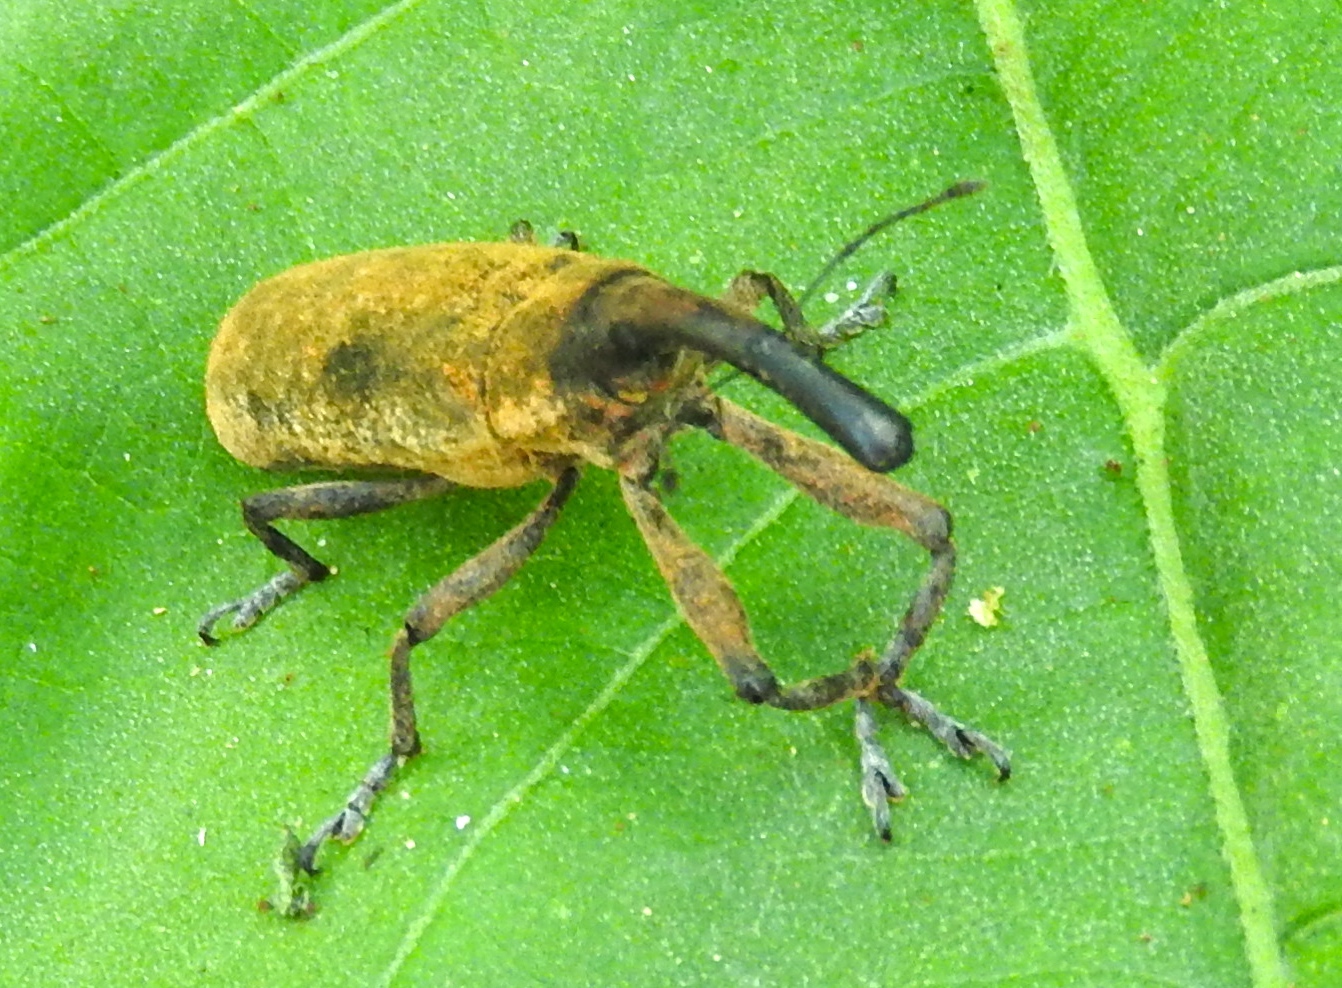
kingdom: Animalia
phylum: Arthropoda
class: Insecta
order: Coleoptera
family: Curculionidae
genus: Lixus
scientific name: Lixus
